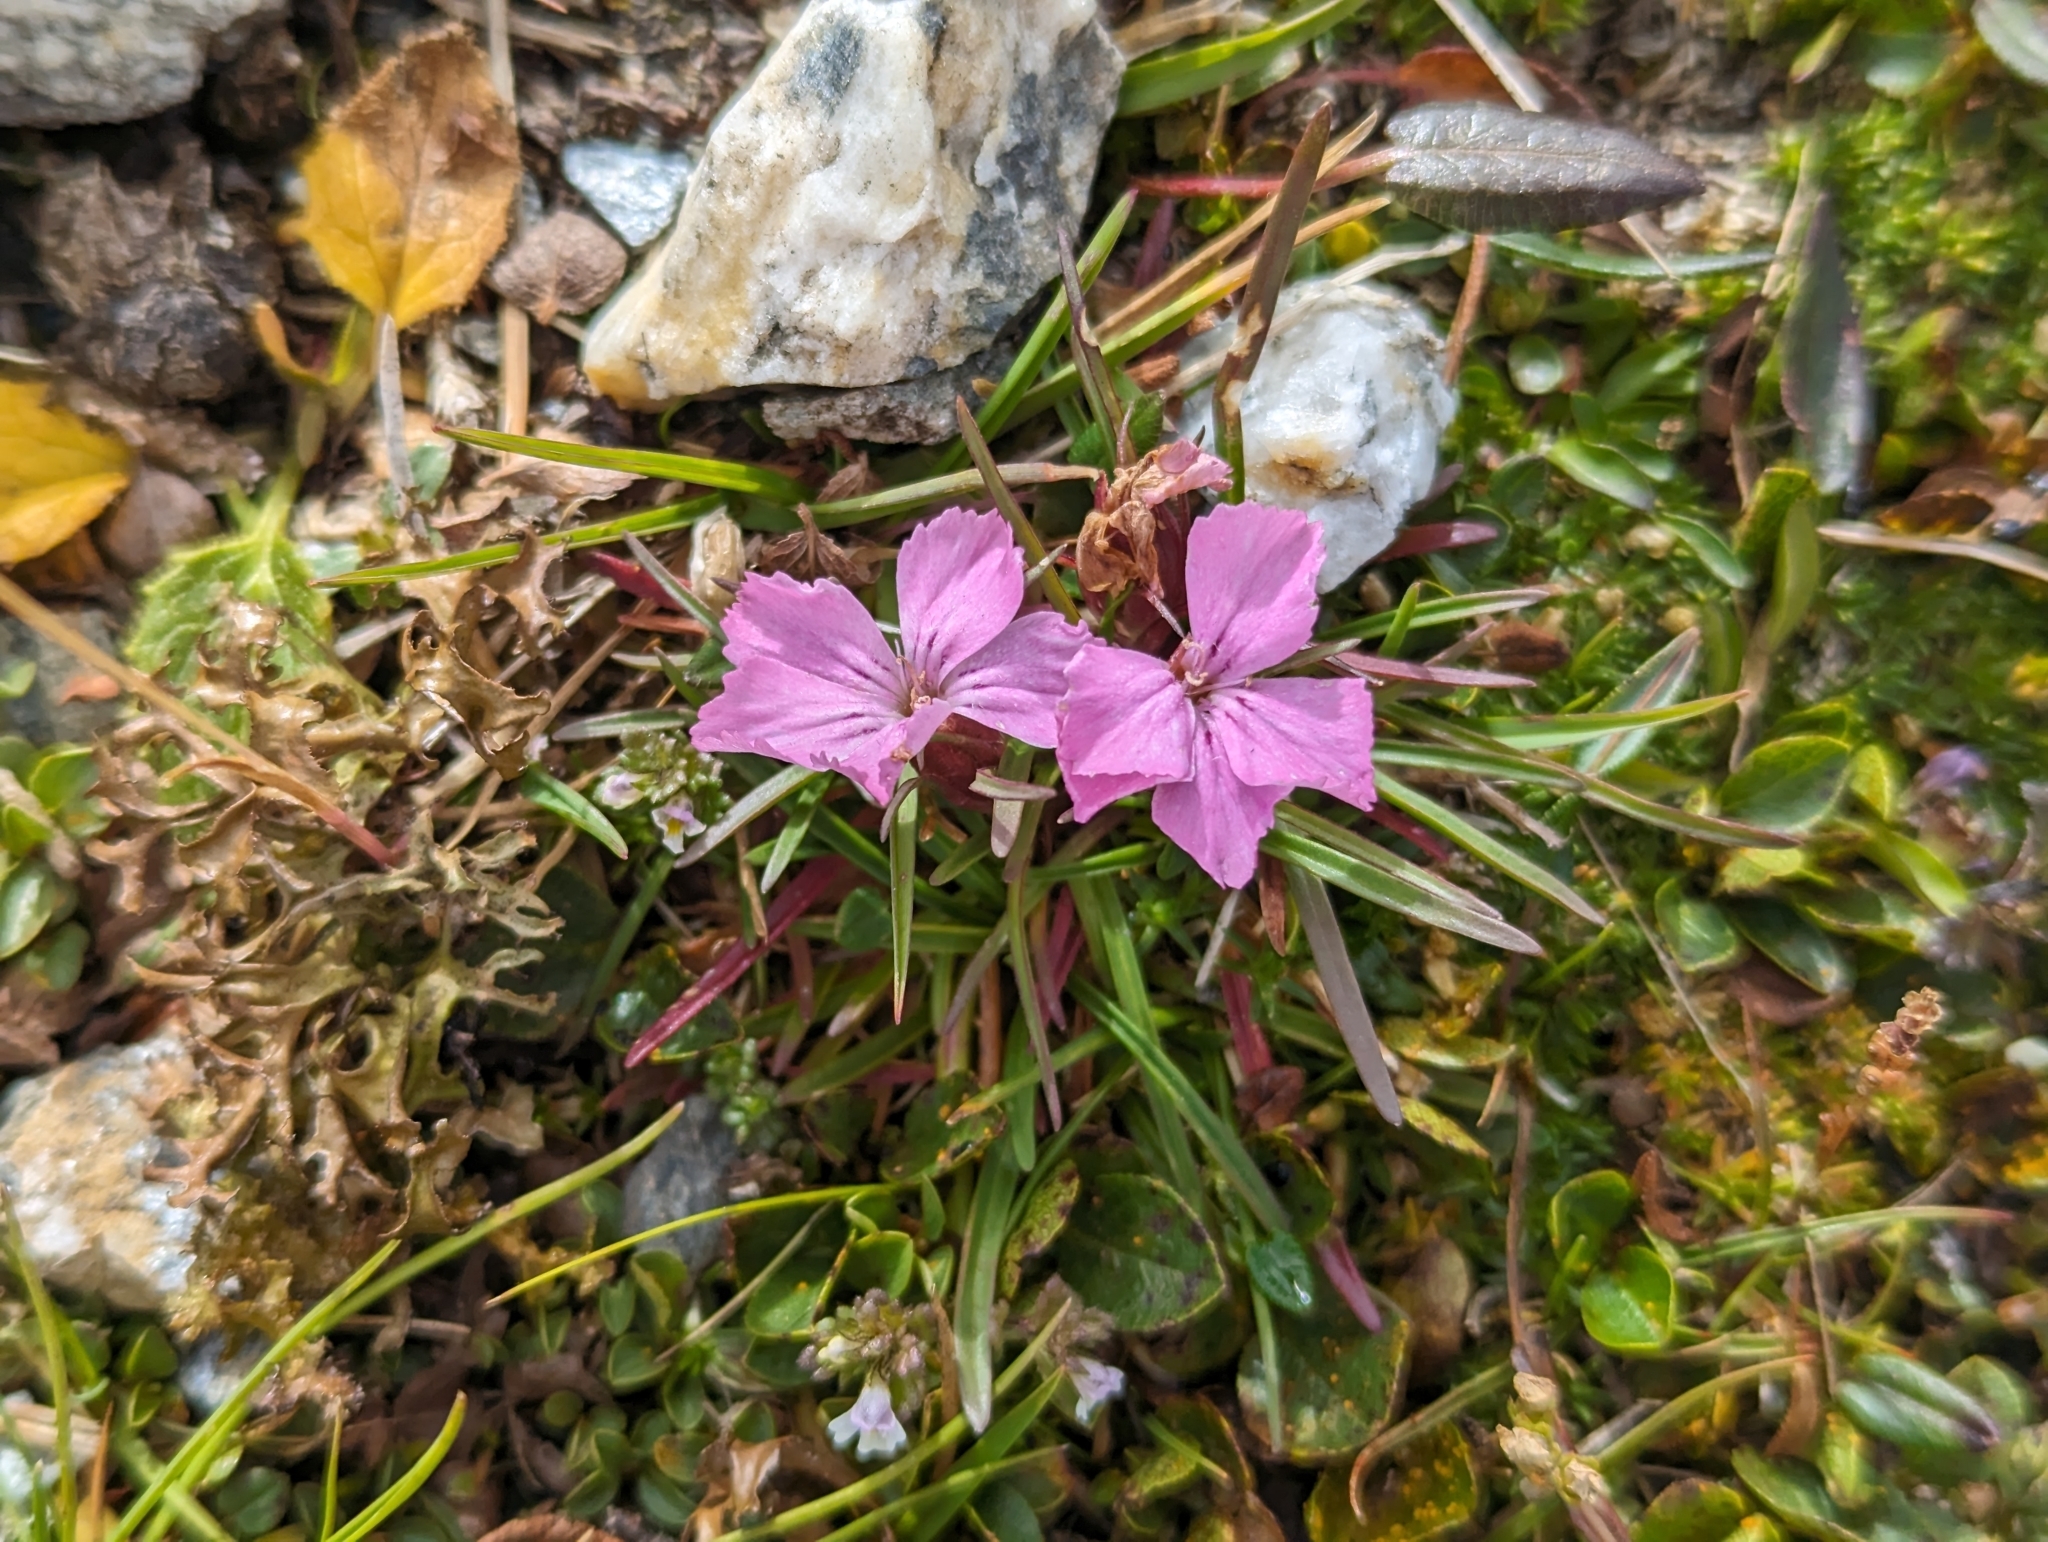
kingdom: Plantae
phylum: Tracheophyta
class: Magnoliopsida
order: Caryophyllales
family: Caryophyllaceae
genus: Dianthus
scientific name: Dianthus glacialis
